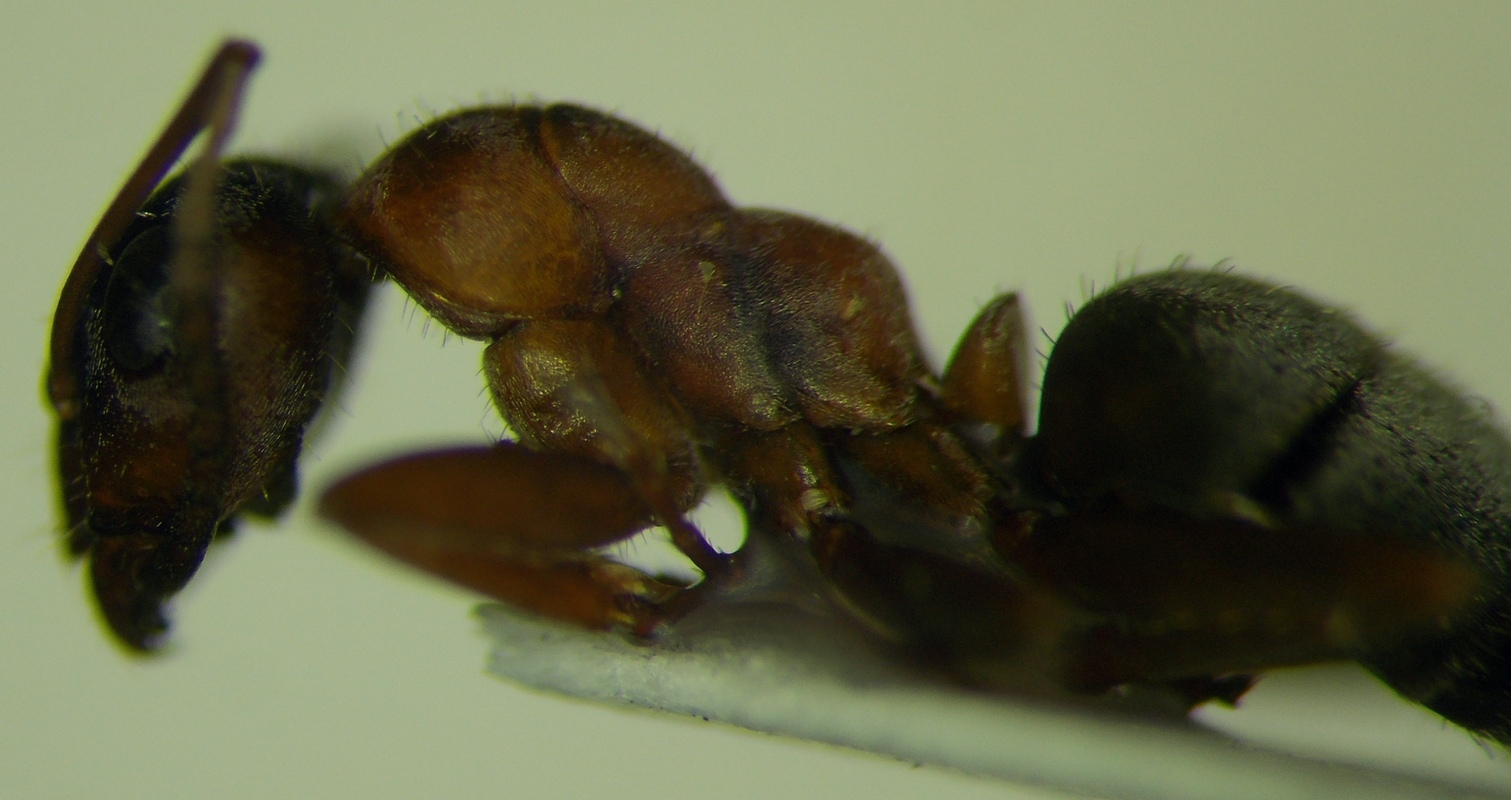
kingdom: Animalia
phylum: Arthropoda
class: Insecta
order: Hymenoptera
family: Formicidae
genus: Formica
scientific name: Formica cinerea
